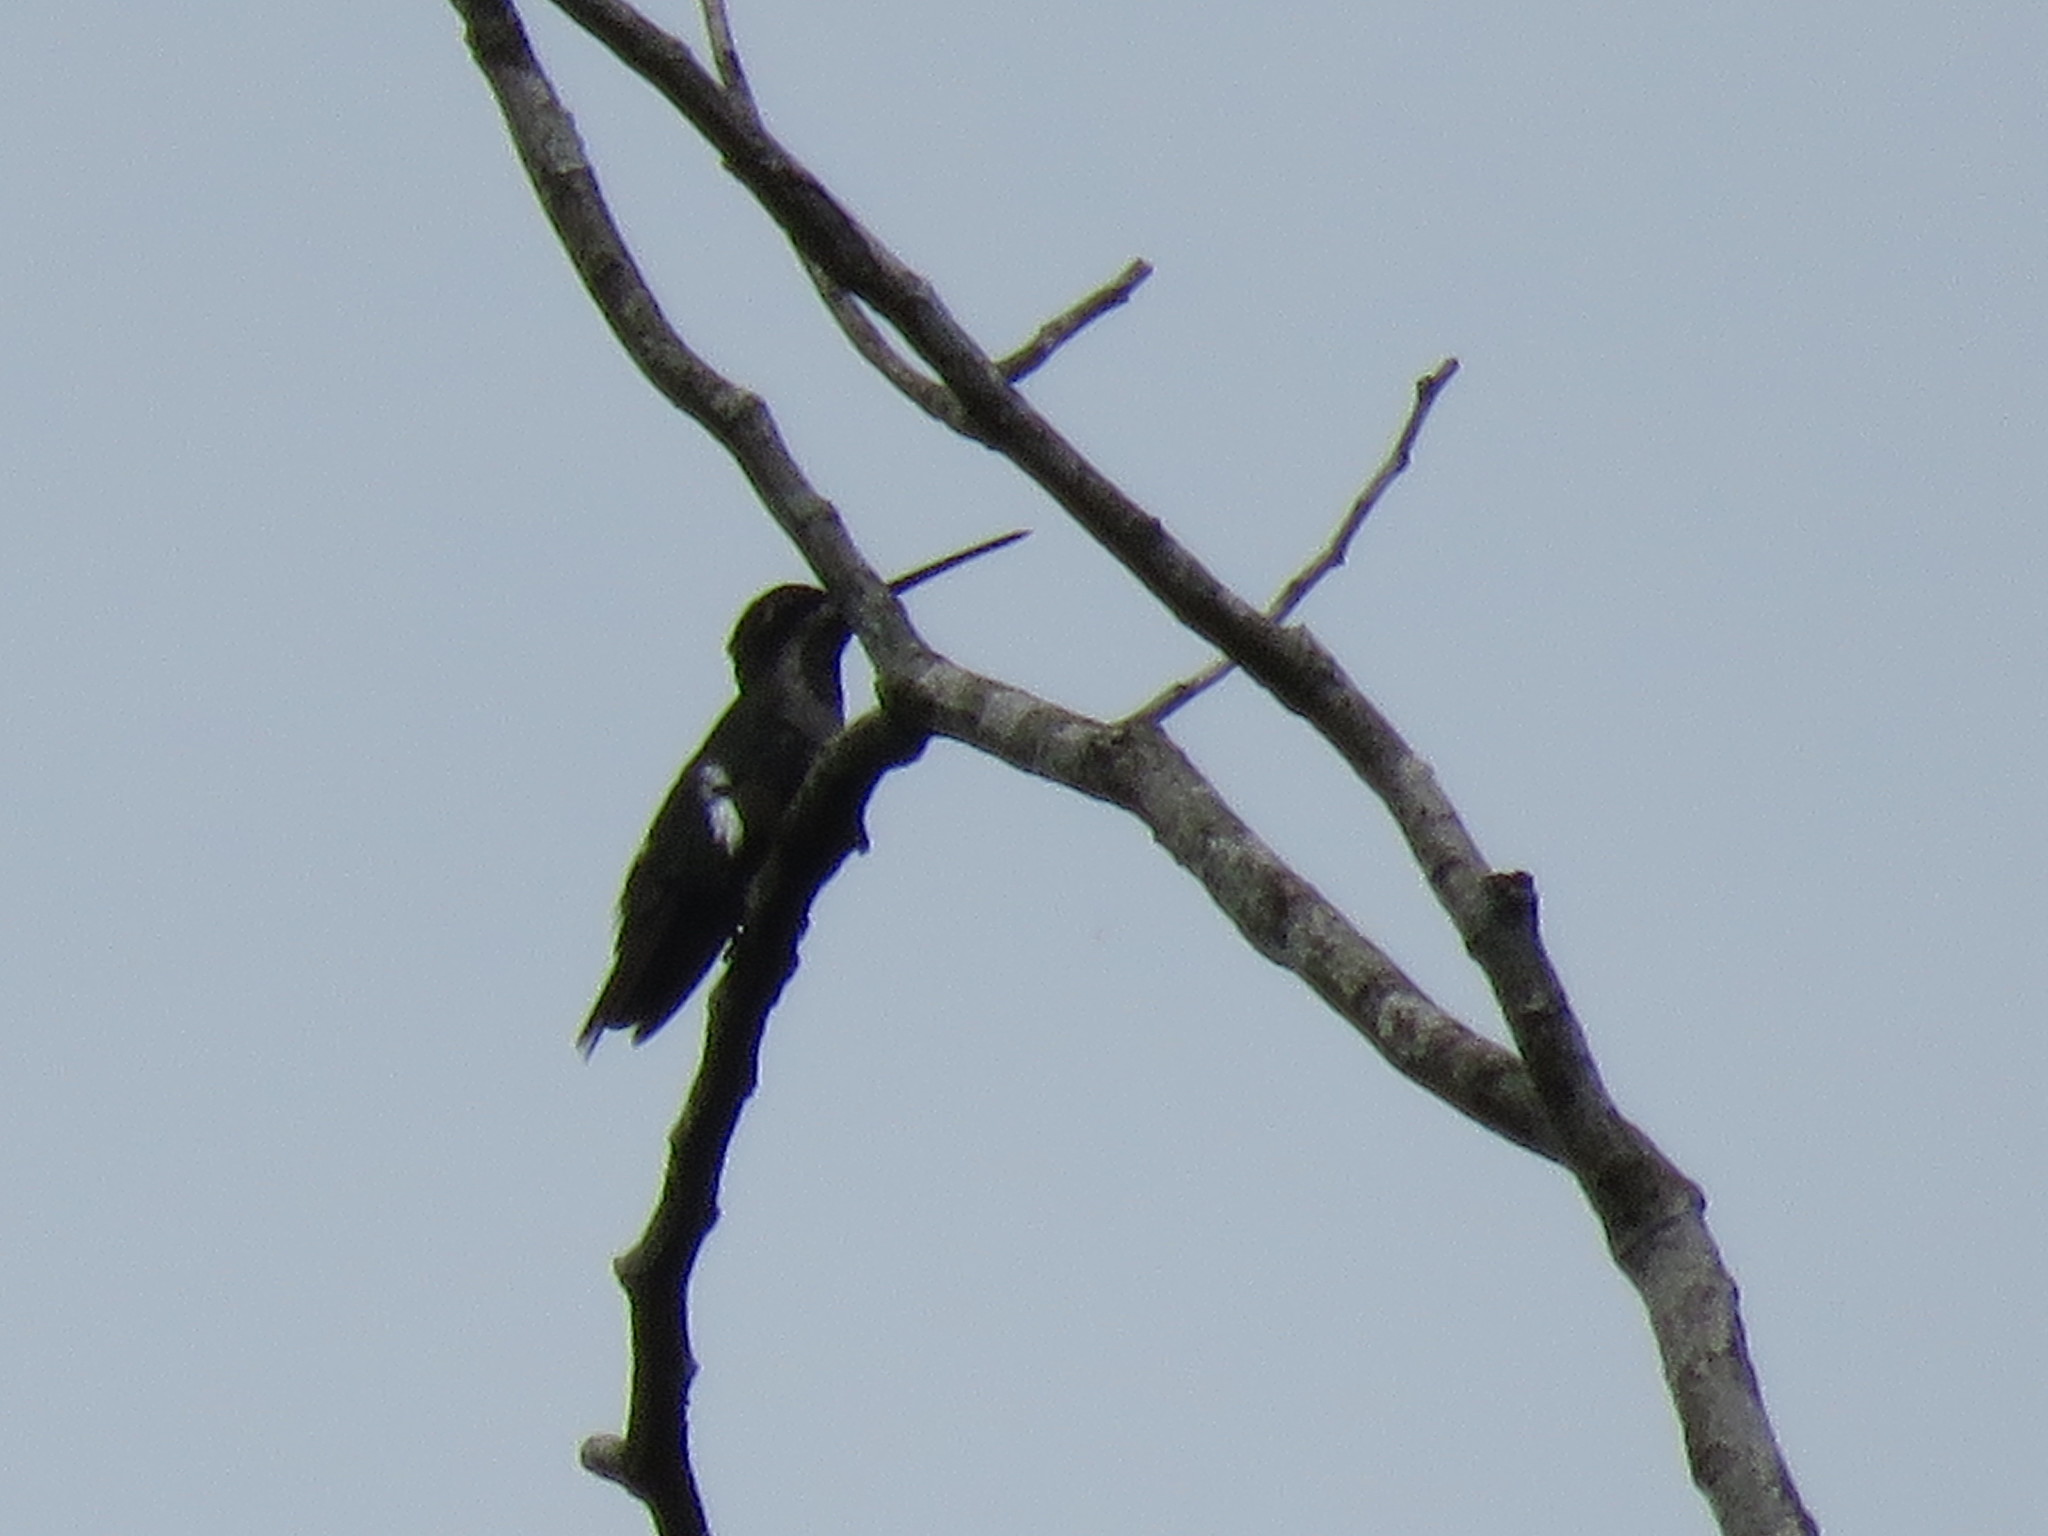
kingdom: Animalia
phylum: Chordata
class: Aves
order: Apodiformes
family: Trochilidae
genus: Heliomaster
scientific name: Heliomaster longirostris
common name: Long-billed starthroat
